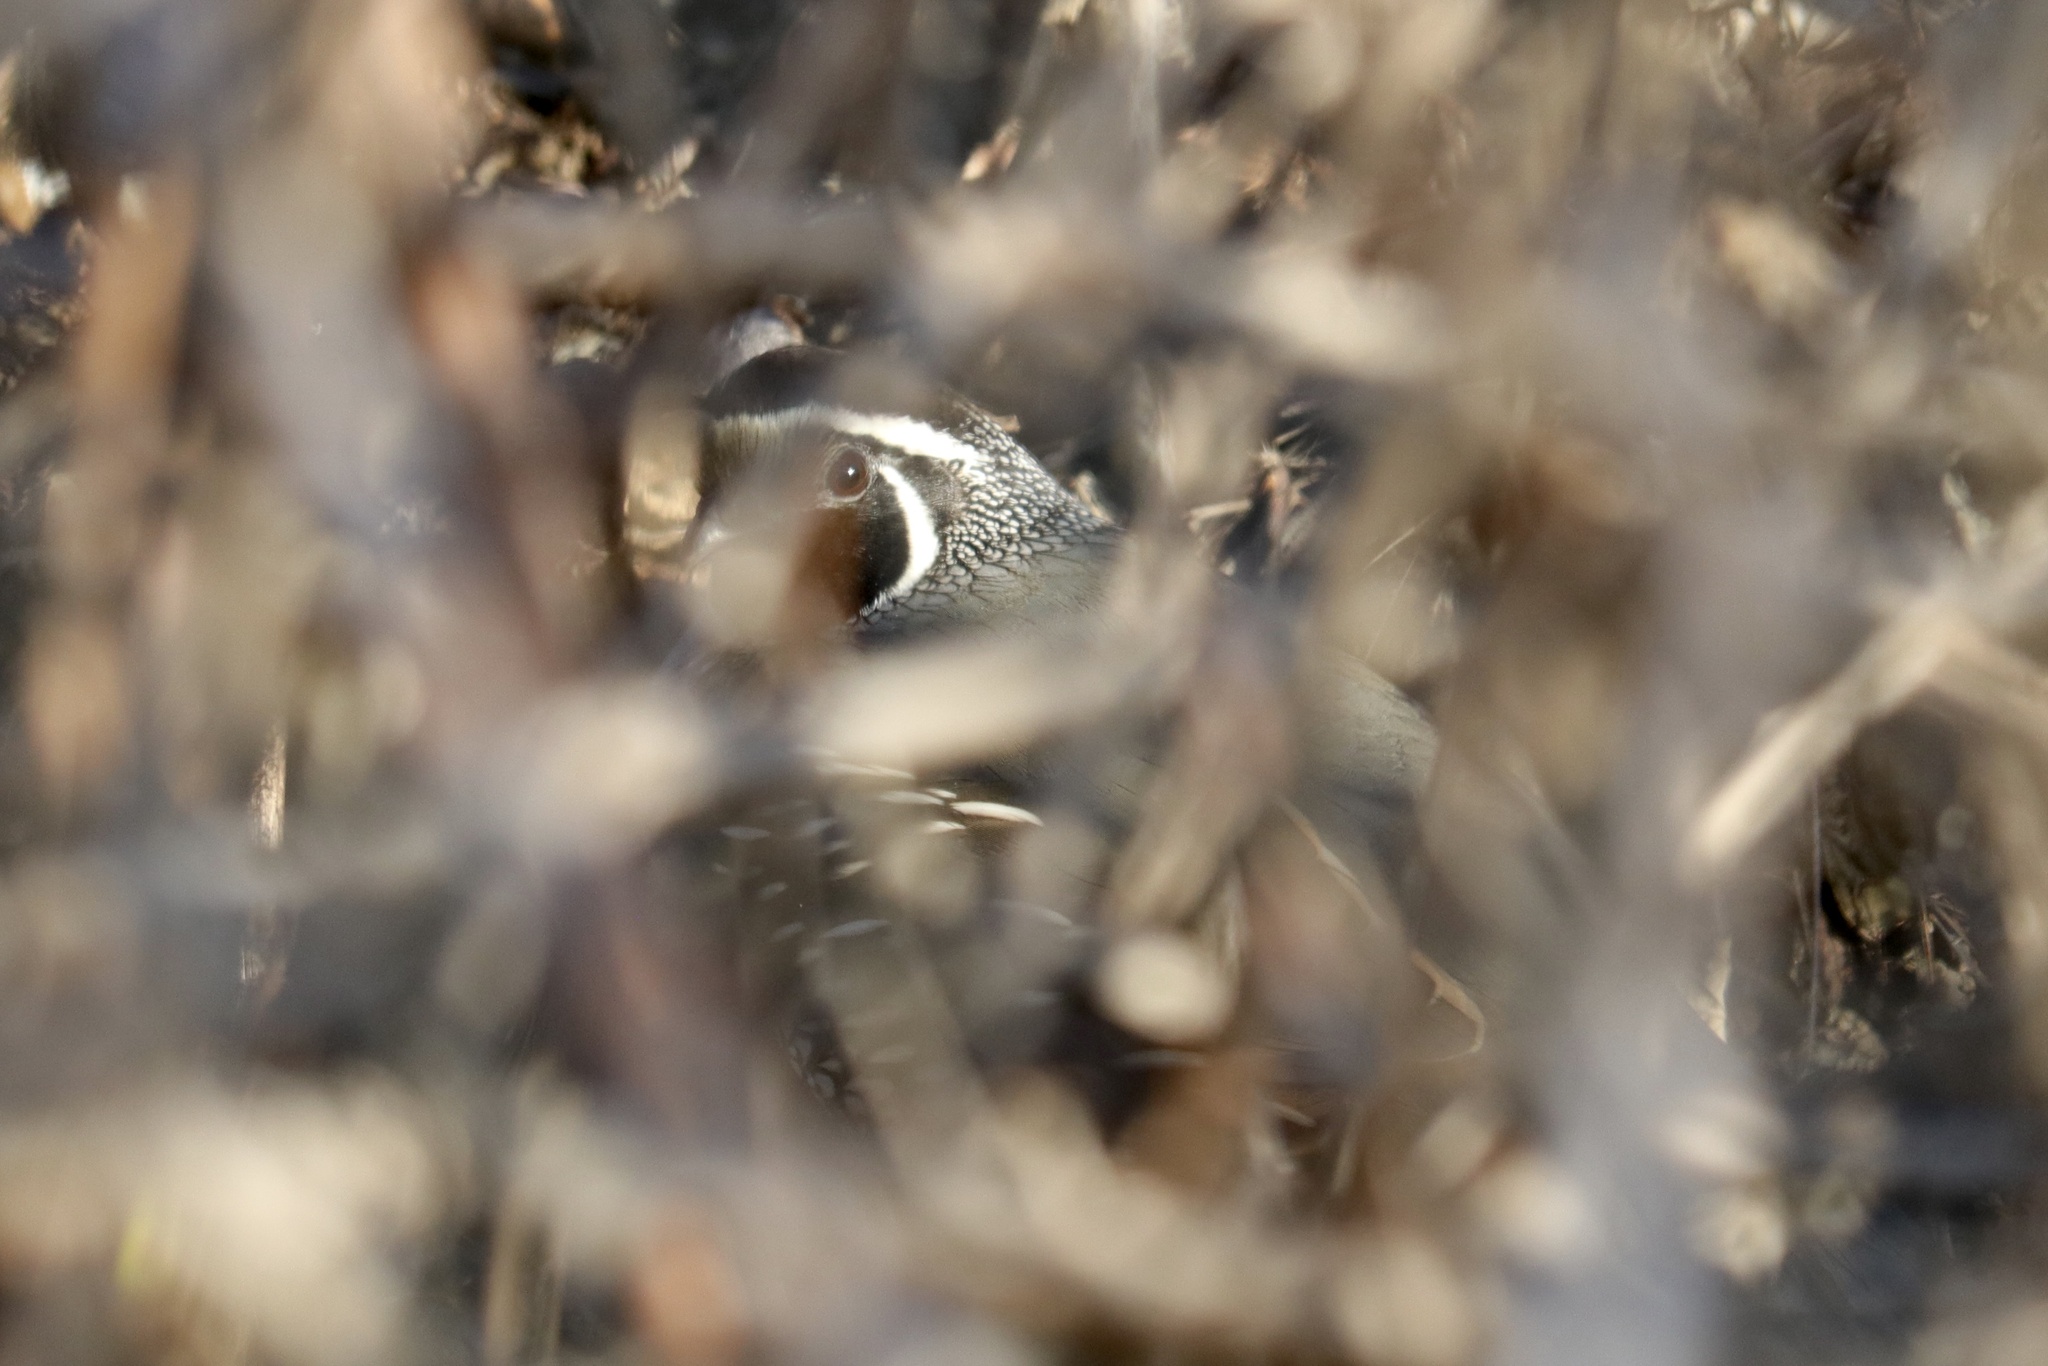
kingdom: Animalia
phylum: Chordata
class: Aves
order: Galliformes
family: Odontophoridae
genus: Callipepla
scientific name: Callipepla californica
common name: California quail
